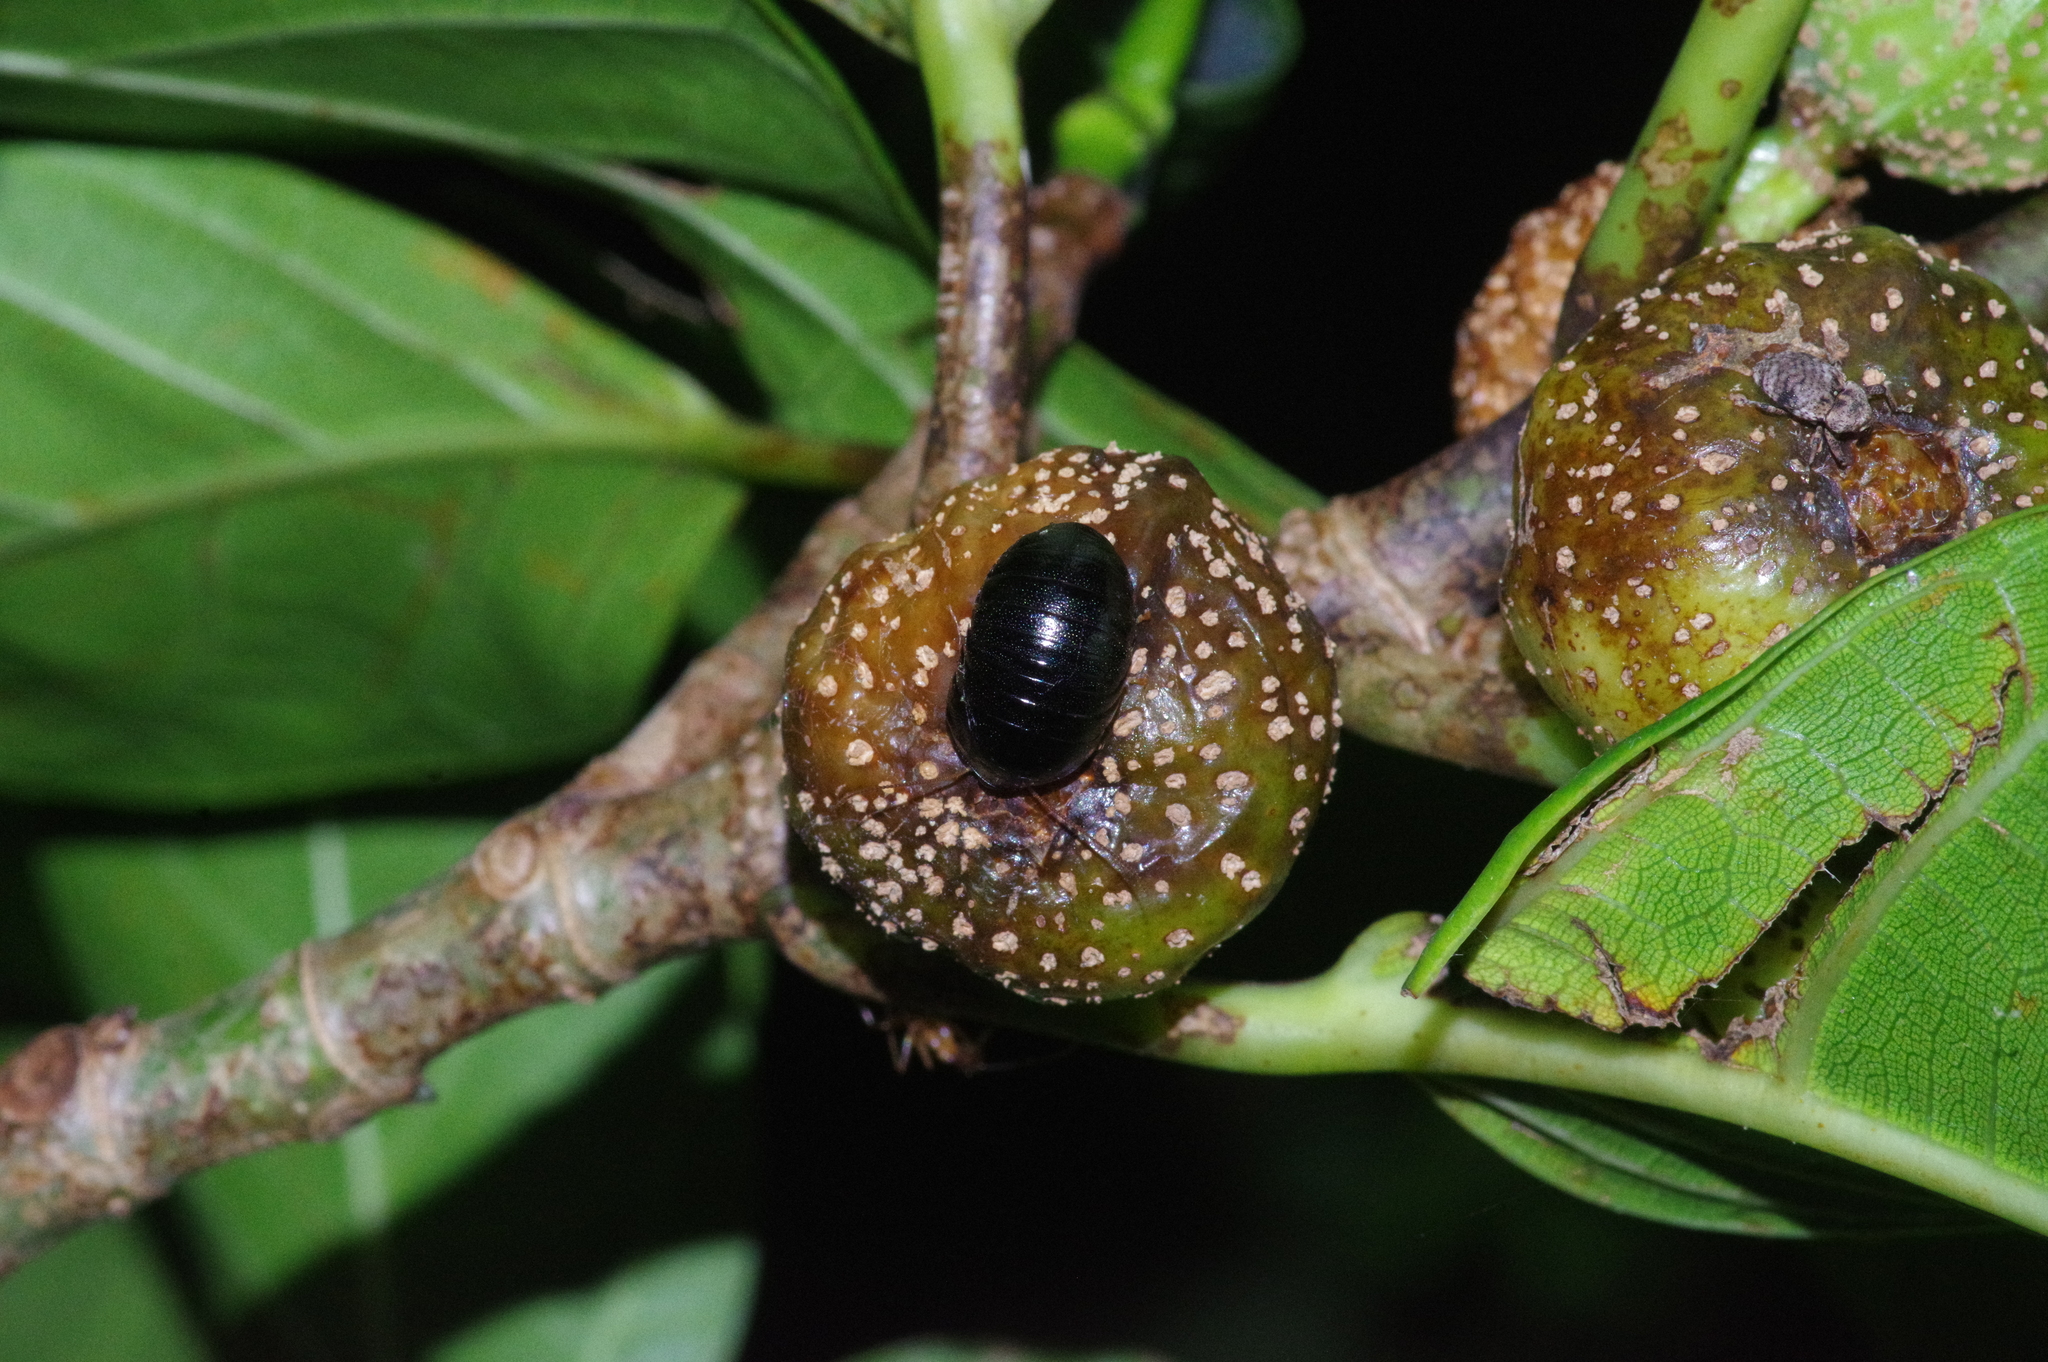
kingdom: Animalia
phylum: Arthropoda
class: Insecta
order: Blattodea
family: Blaberidae
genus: Perisphaerus
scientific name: Perisphaerus pygmaea
